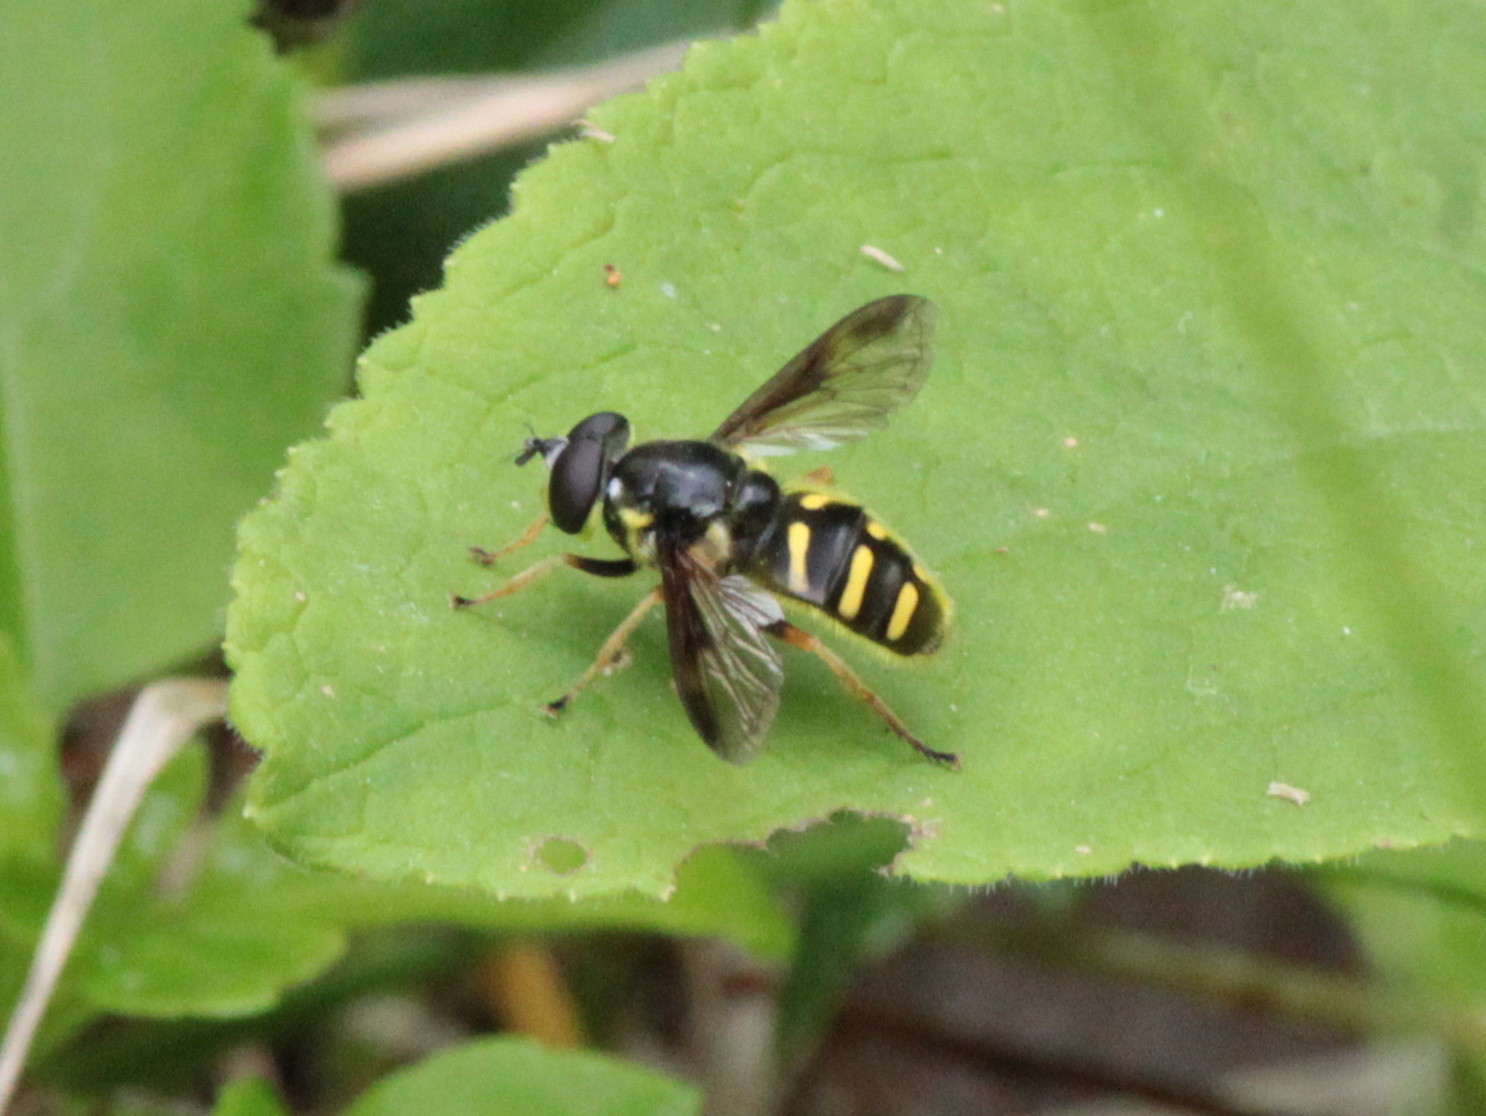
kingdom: Animalia
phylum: Arthropoda
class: Insecta
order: Diptera
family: Syrphidae
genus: Sericomyia
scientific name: Sericomyia chrysotoxoides
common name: Oblique-banded pond fly
